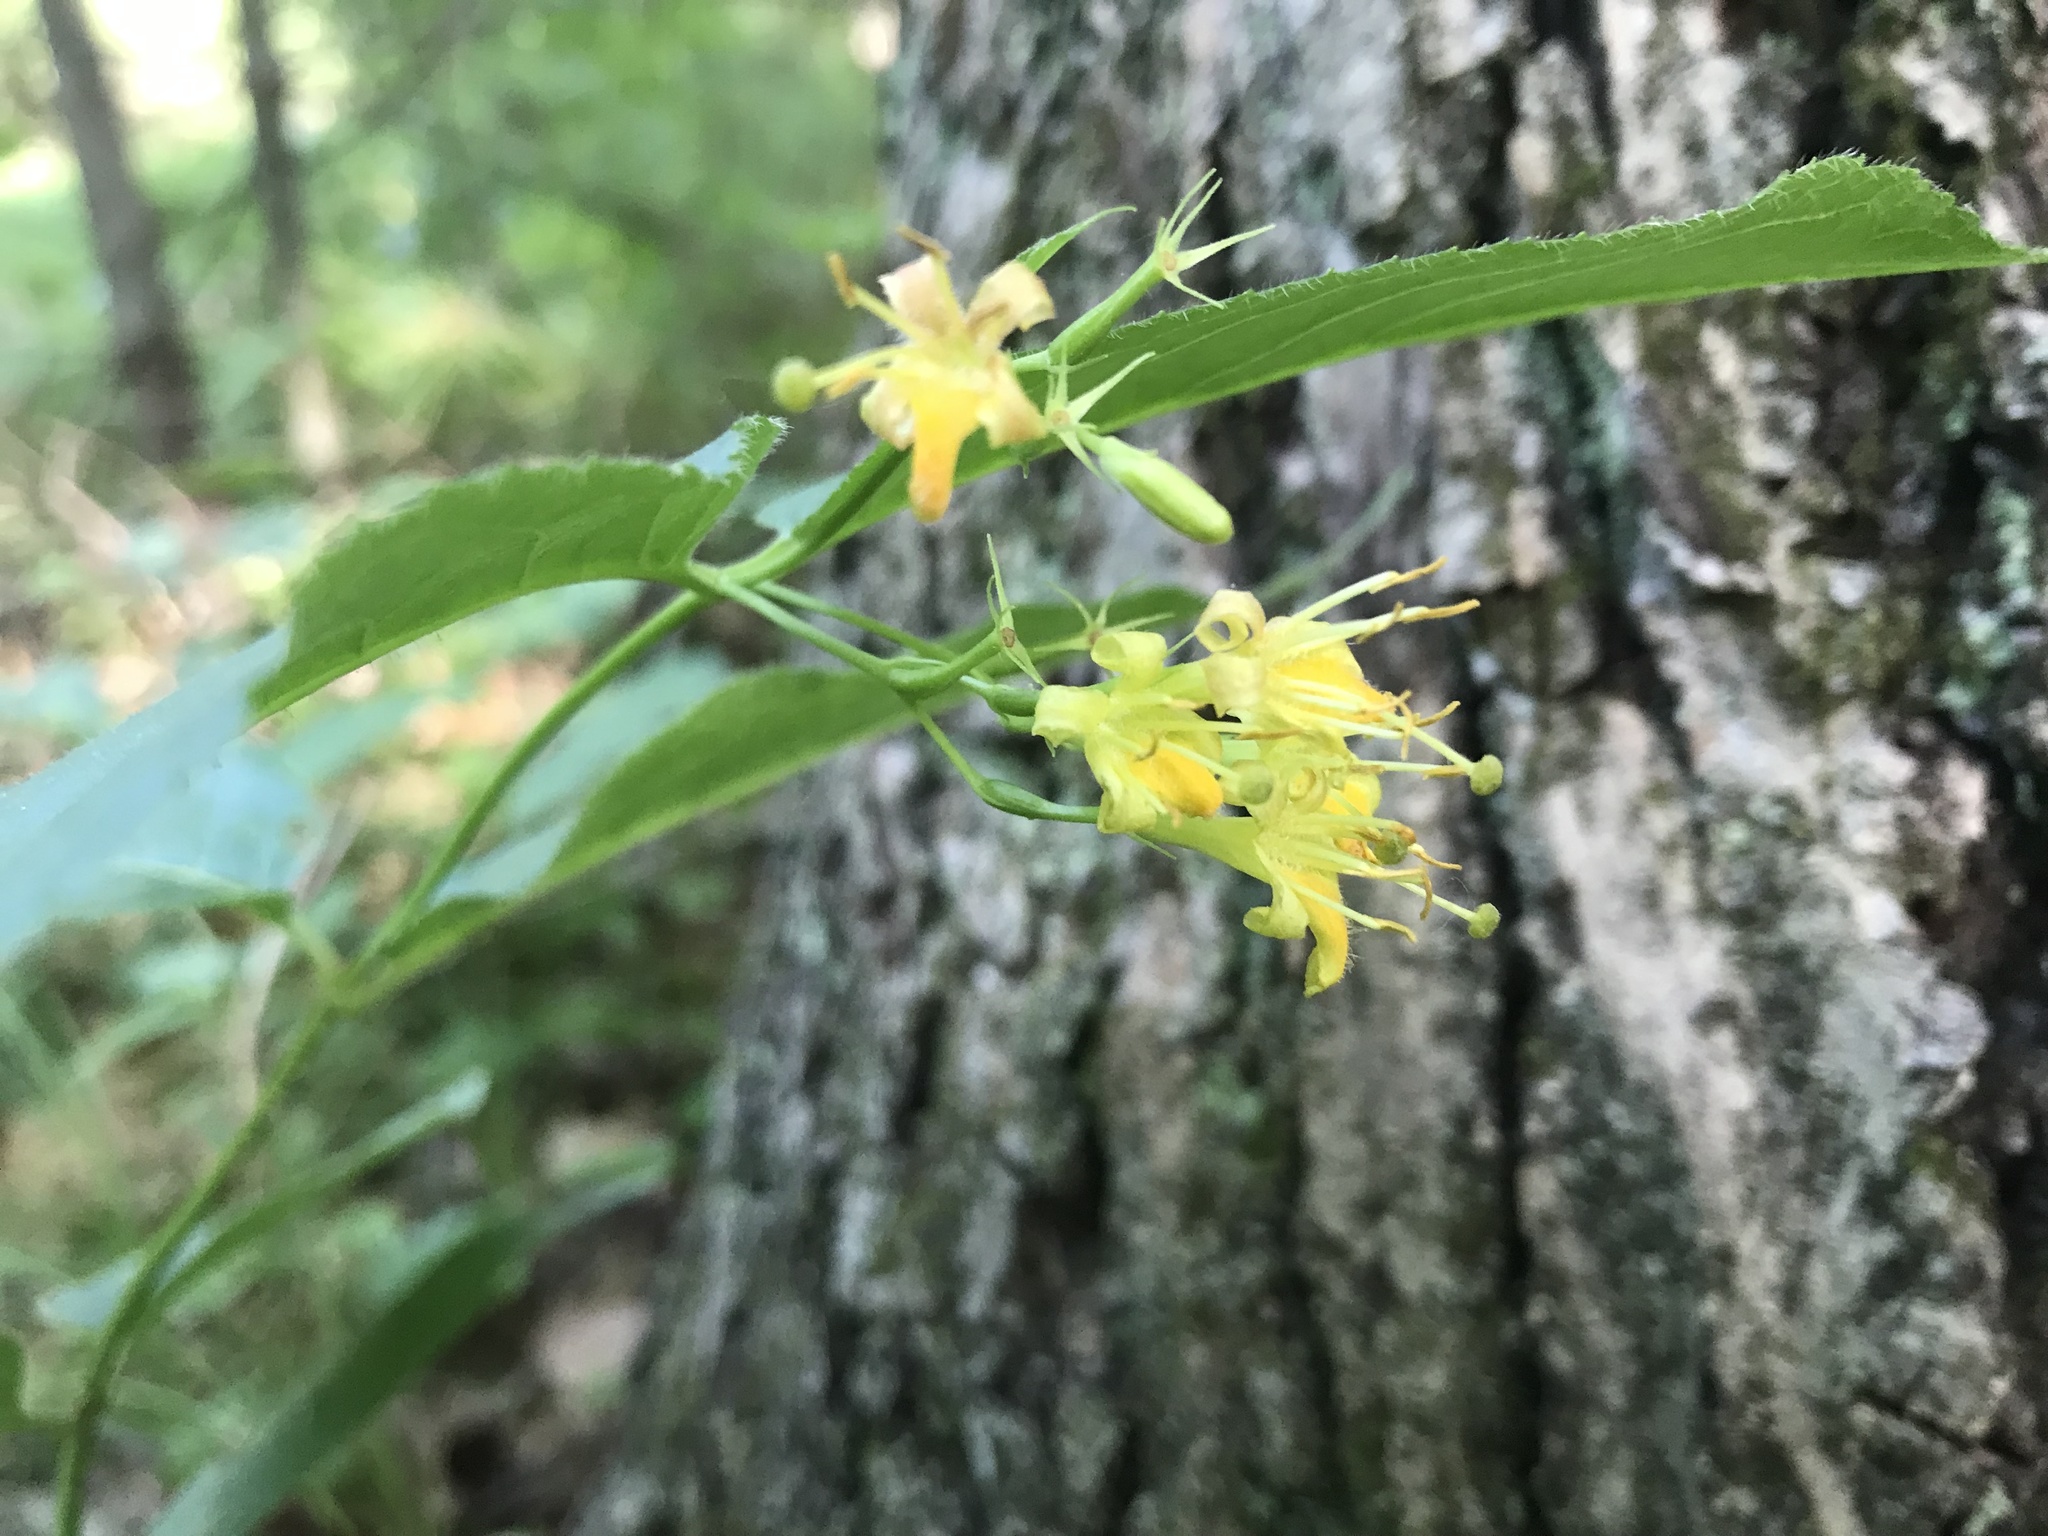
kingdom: Plantae
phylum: Tracheophyta
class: Magnoliopsida
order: Dipsacales
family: Caprifoliaceae
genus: Diervilla
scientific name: Diervilla lonicera
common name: Bush-honeysuckle
